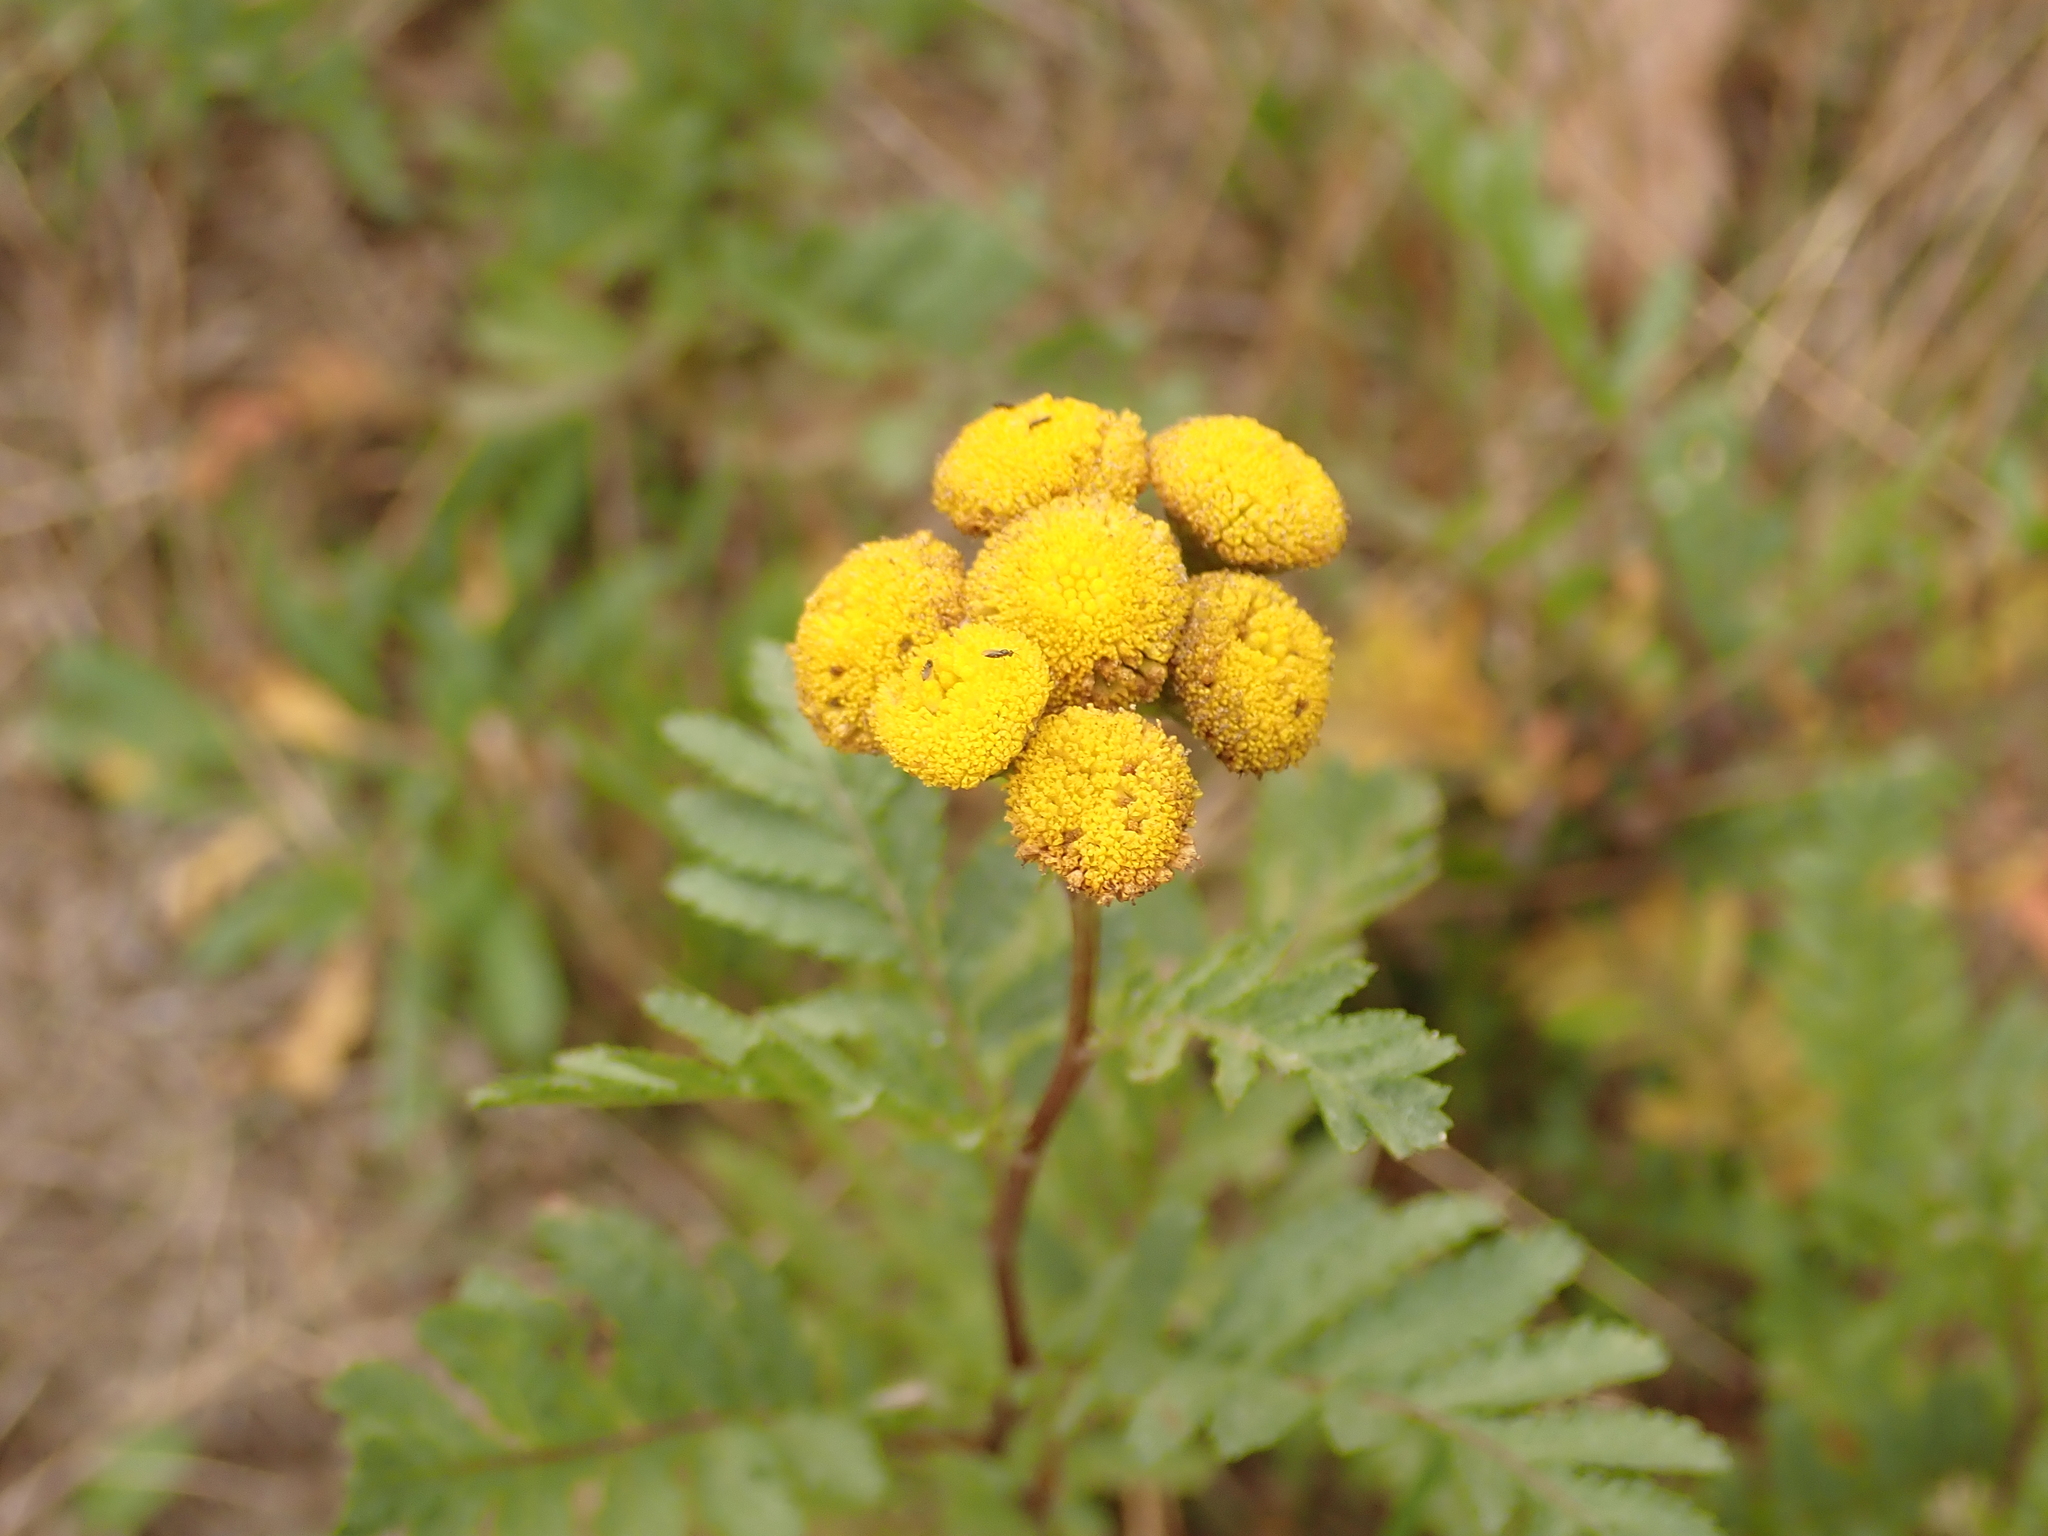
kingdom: Plantae
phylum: Tracheophyta
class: Magnoliopsida
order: Asterales
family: Asteraceae
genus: Tanacetum
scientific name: Tanacetum vulgare
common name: Common tansy
